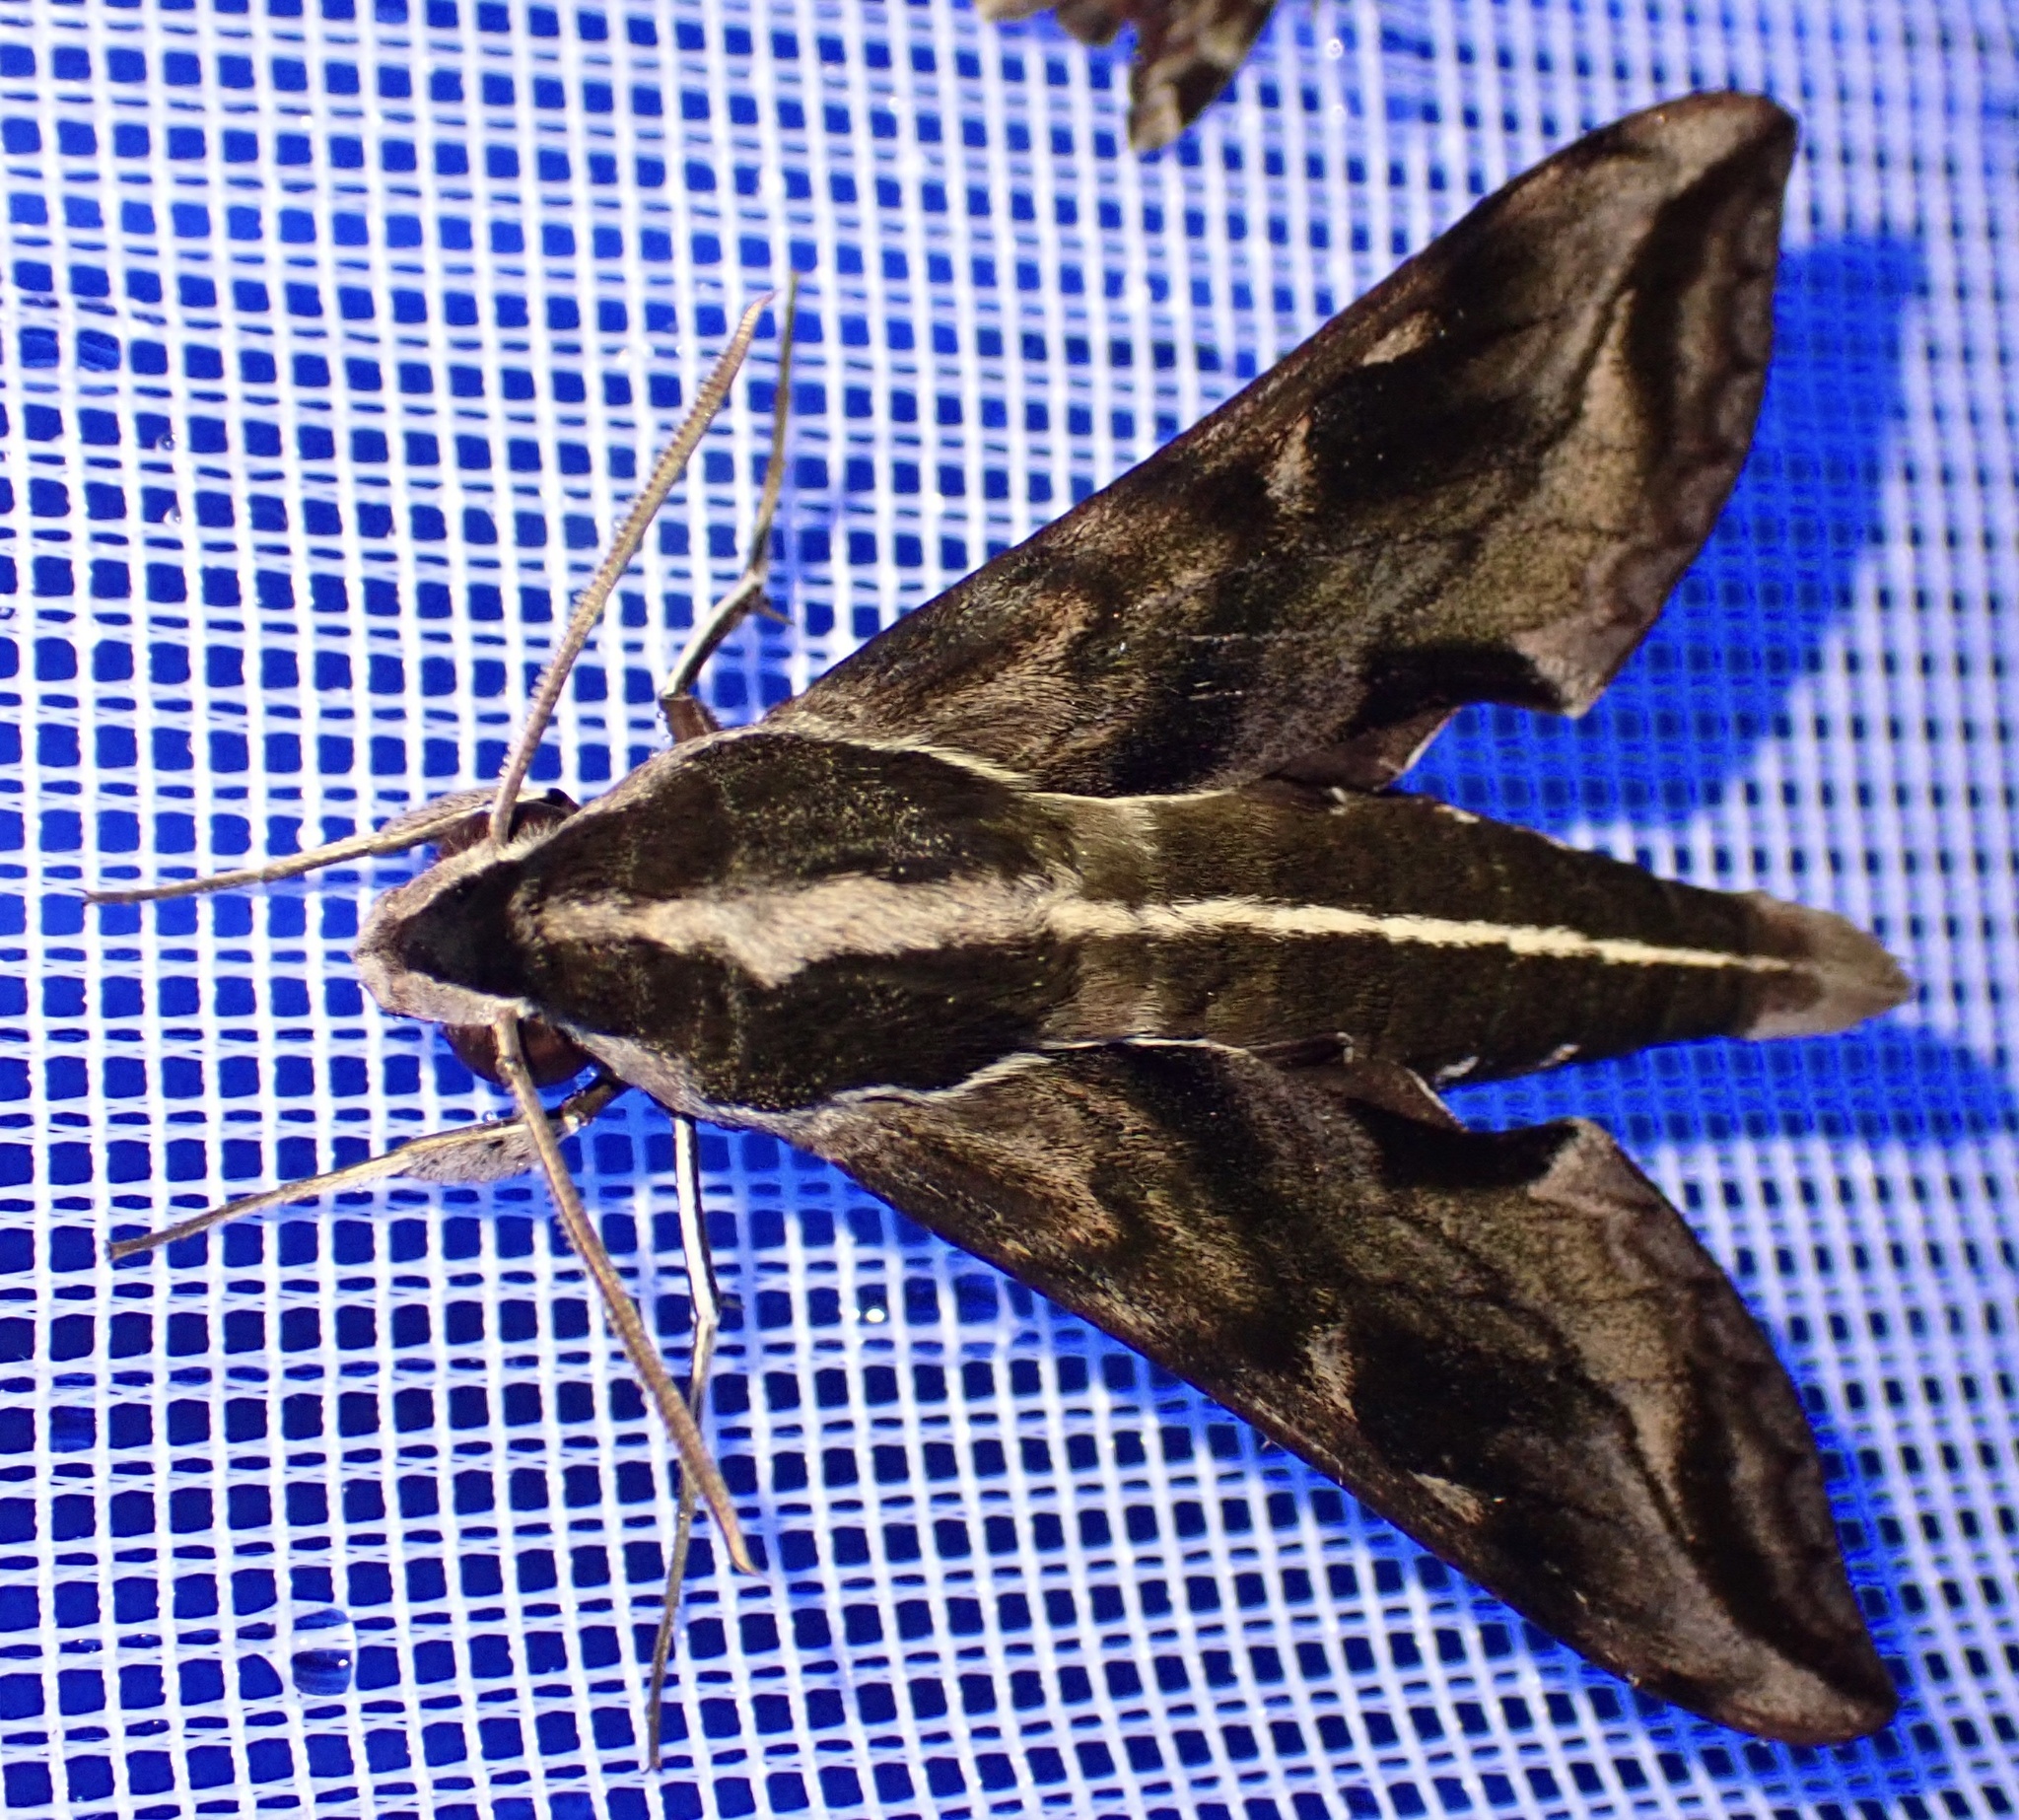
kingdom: Animalia
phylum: Arthropoda
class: Insecta
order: Lepidoptera
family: Sphingidae
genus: Hippotion
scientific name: Hippotion brunnea
